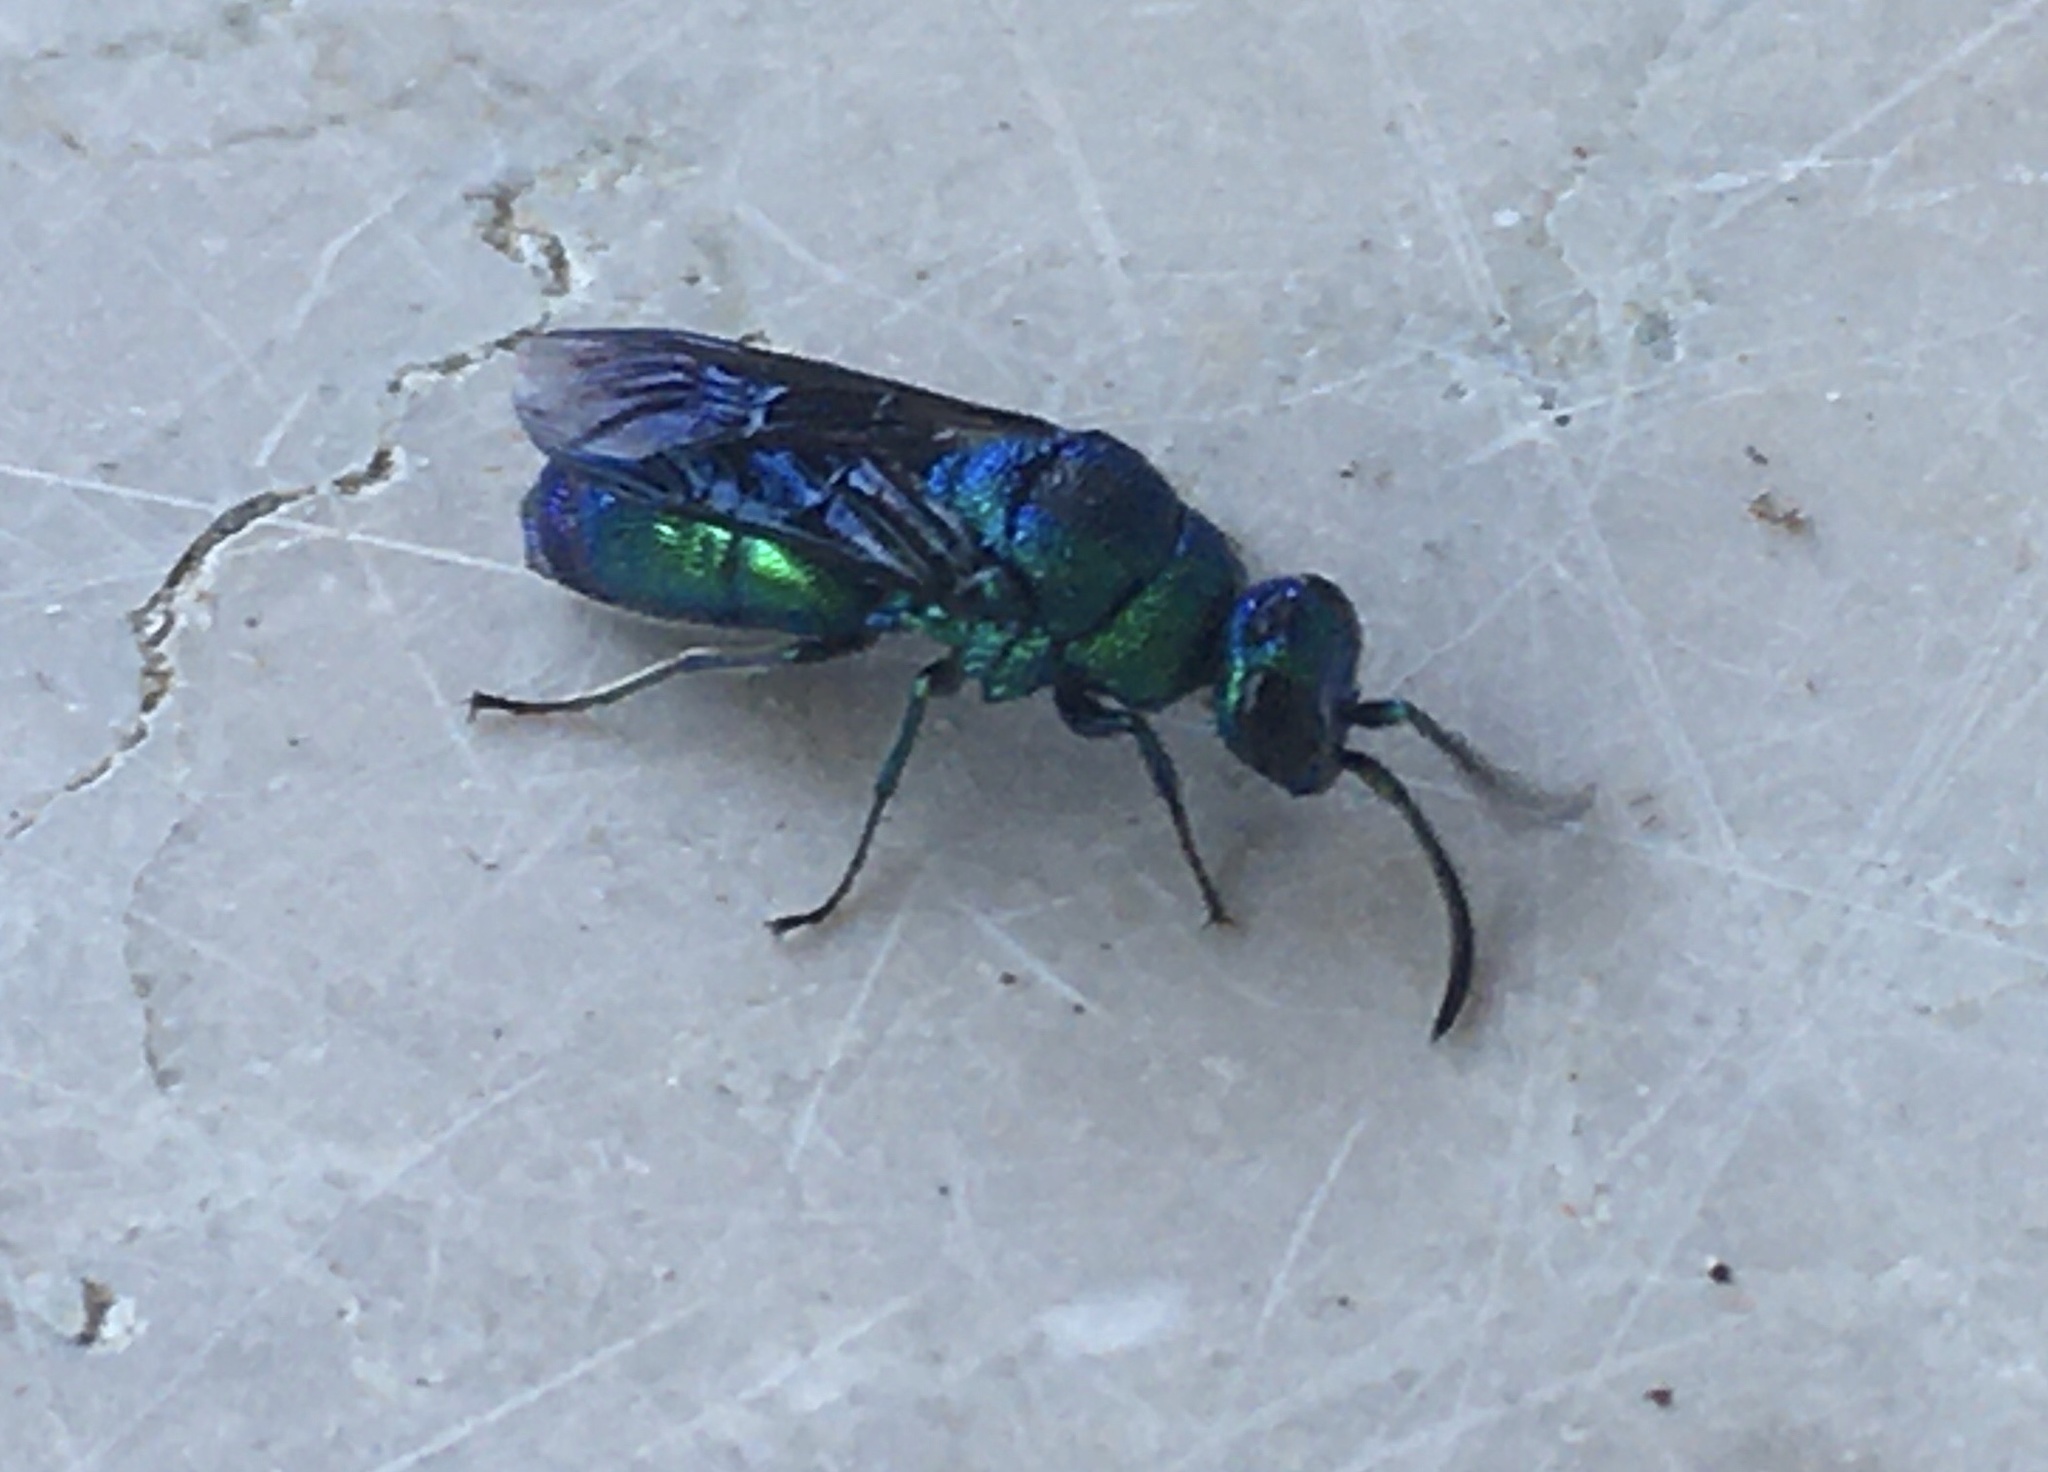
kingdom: Animalia
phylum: Arthropoda
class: Insecta
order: Hymenoptera
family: Chrysididae
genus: Chrysis
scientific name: Chrysis angolensis
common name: Cuckoo wasp
